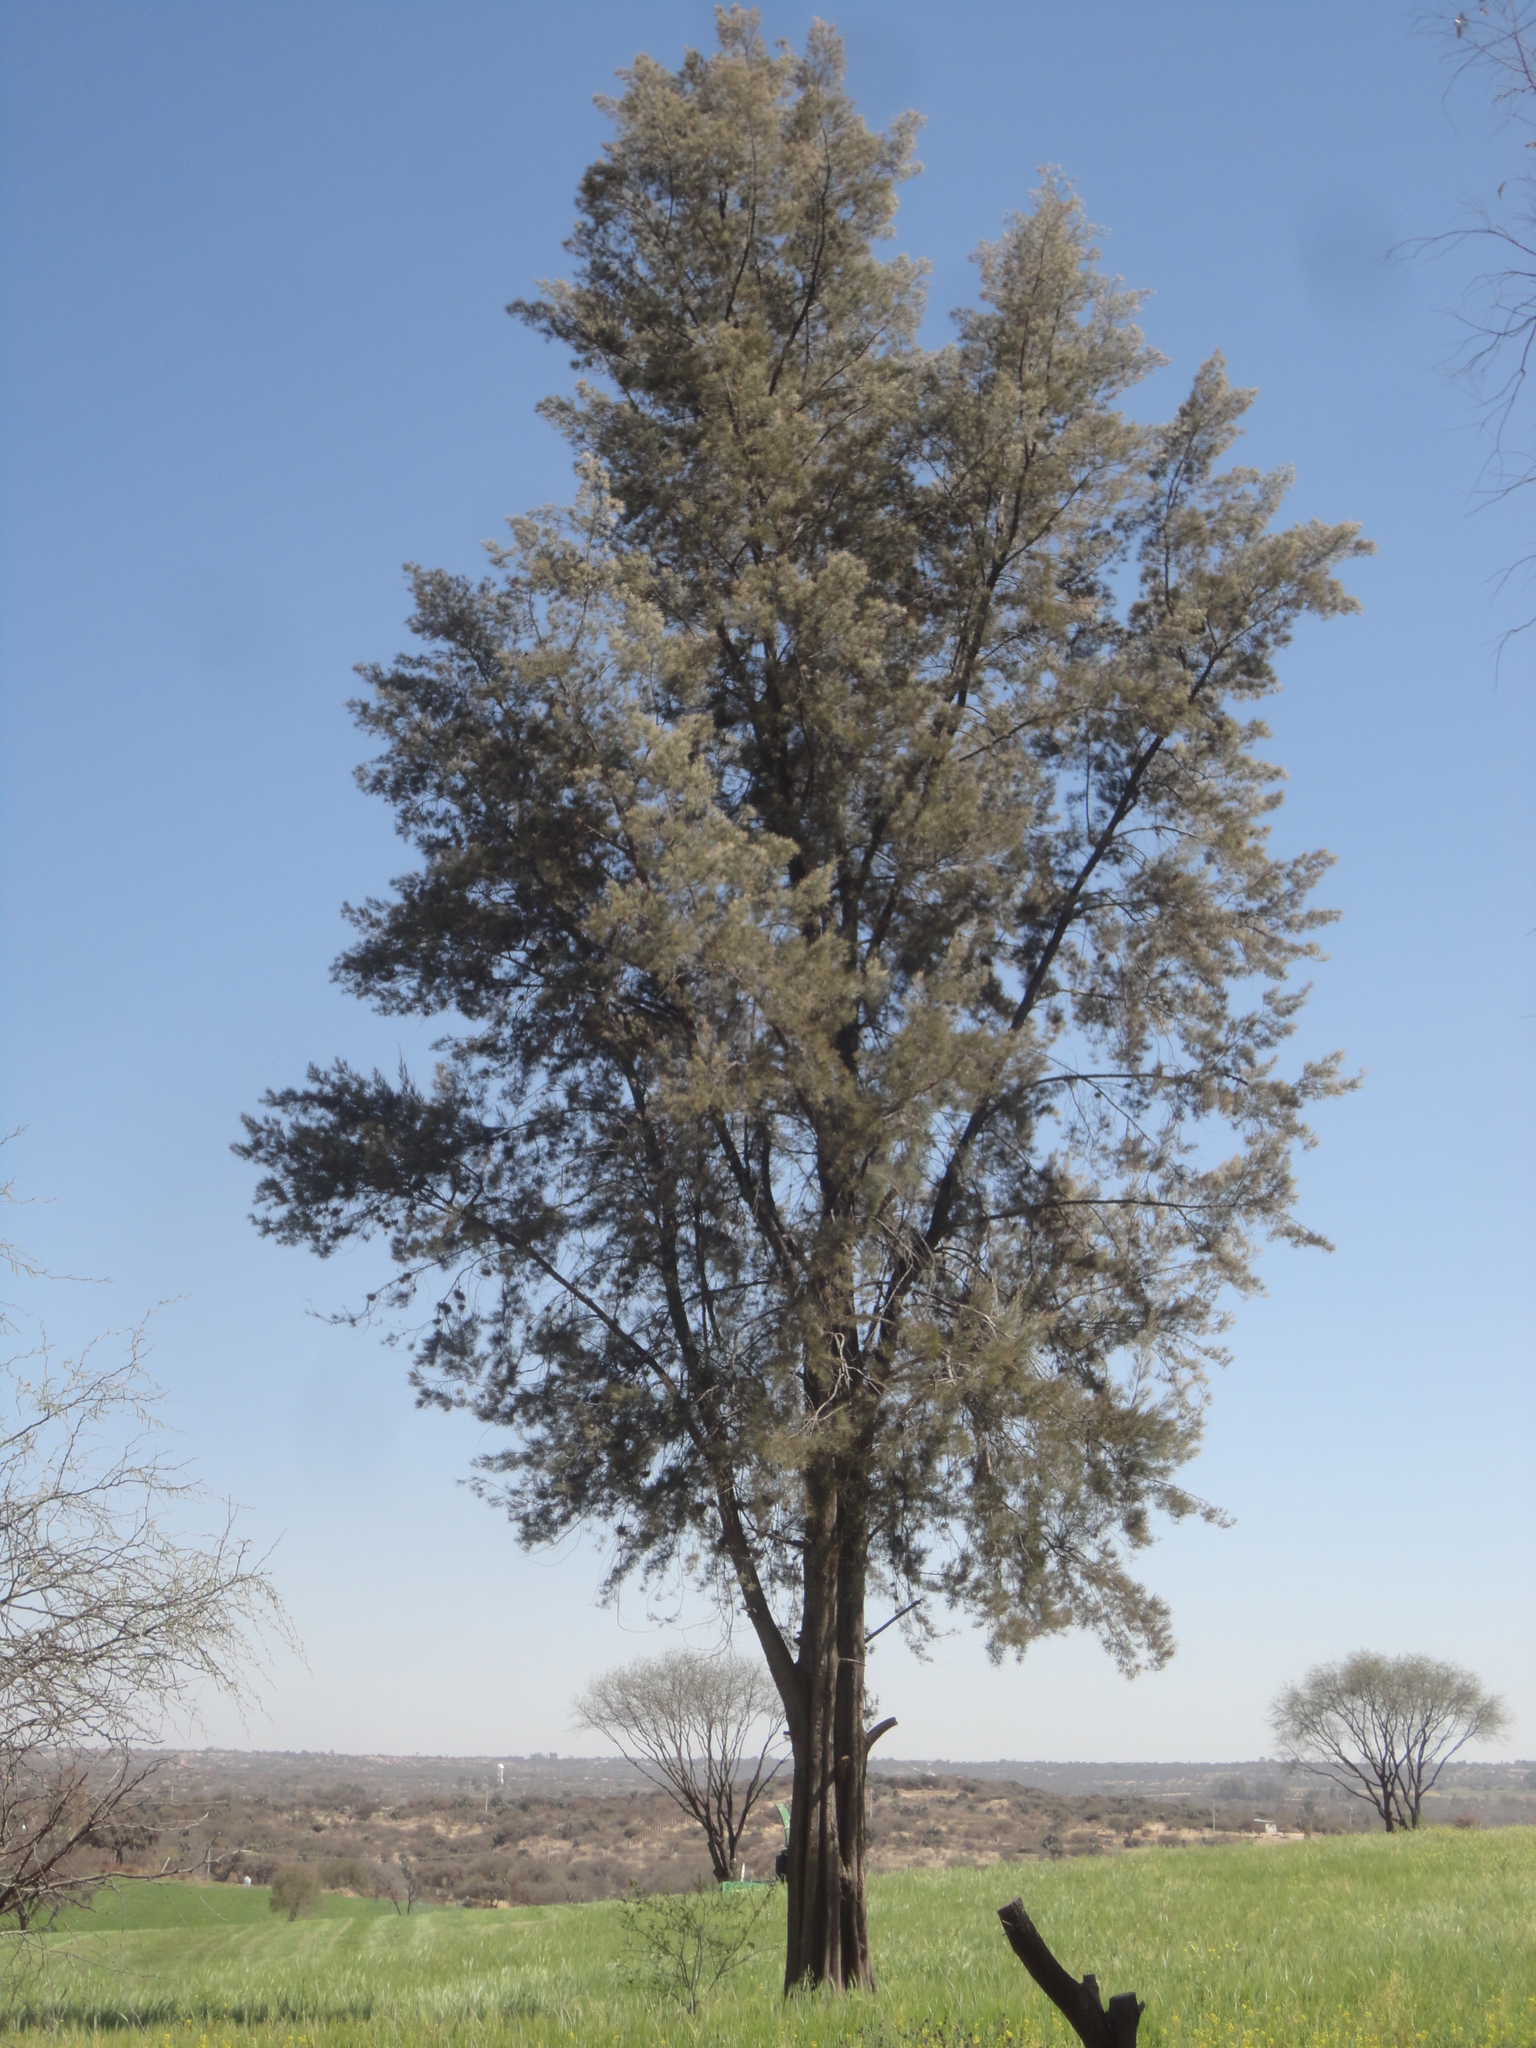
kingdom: Plantae
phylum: Tracheophyta
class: Magnoliopsida
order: Fagales
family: Casuarinaceae
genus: Casuarina
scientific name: Casuarina equisetifolia
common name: Beach sheoak
